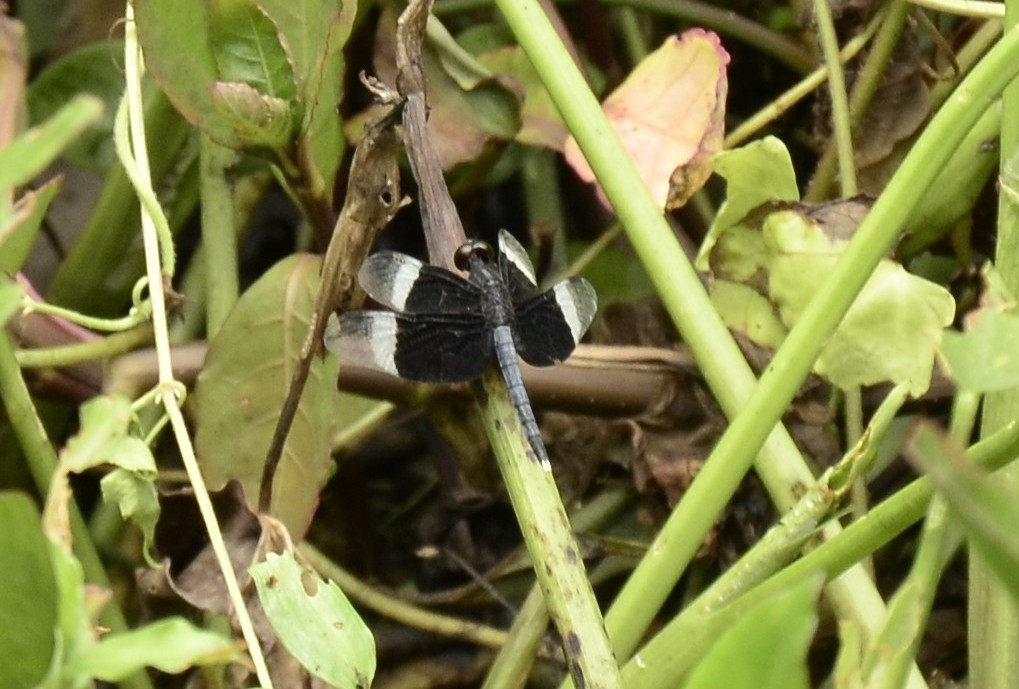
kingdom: Animalia
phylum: Arthropoda
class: Insecta
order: Odonata
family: Libellulidae
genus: Neurothemis
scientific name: Neurothemis tullia
